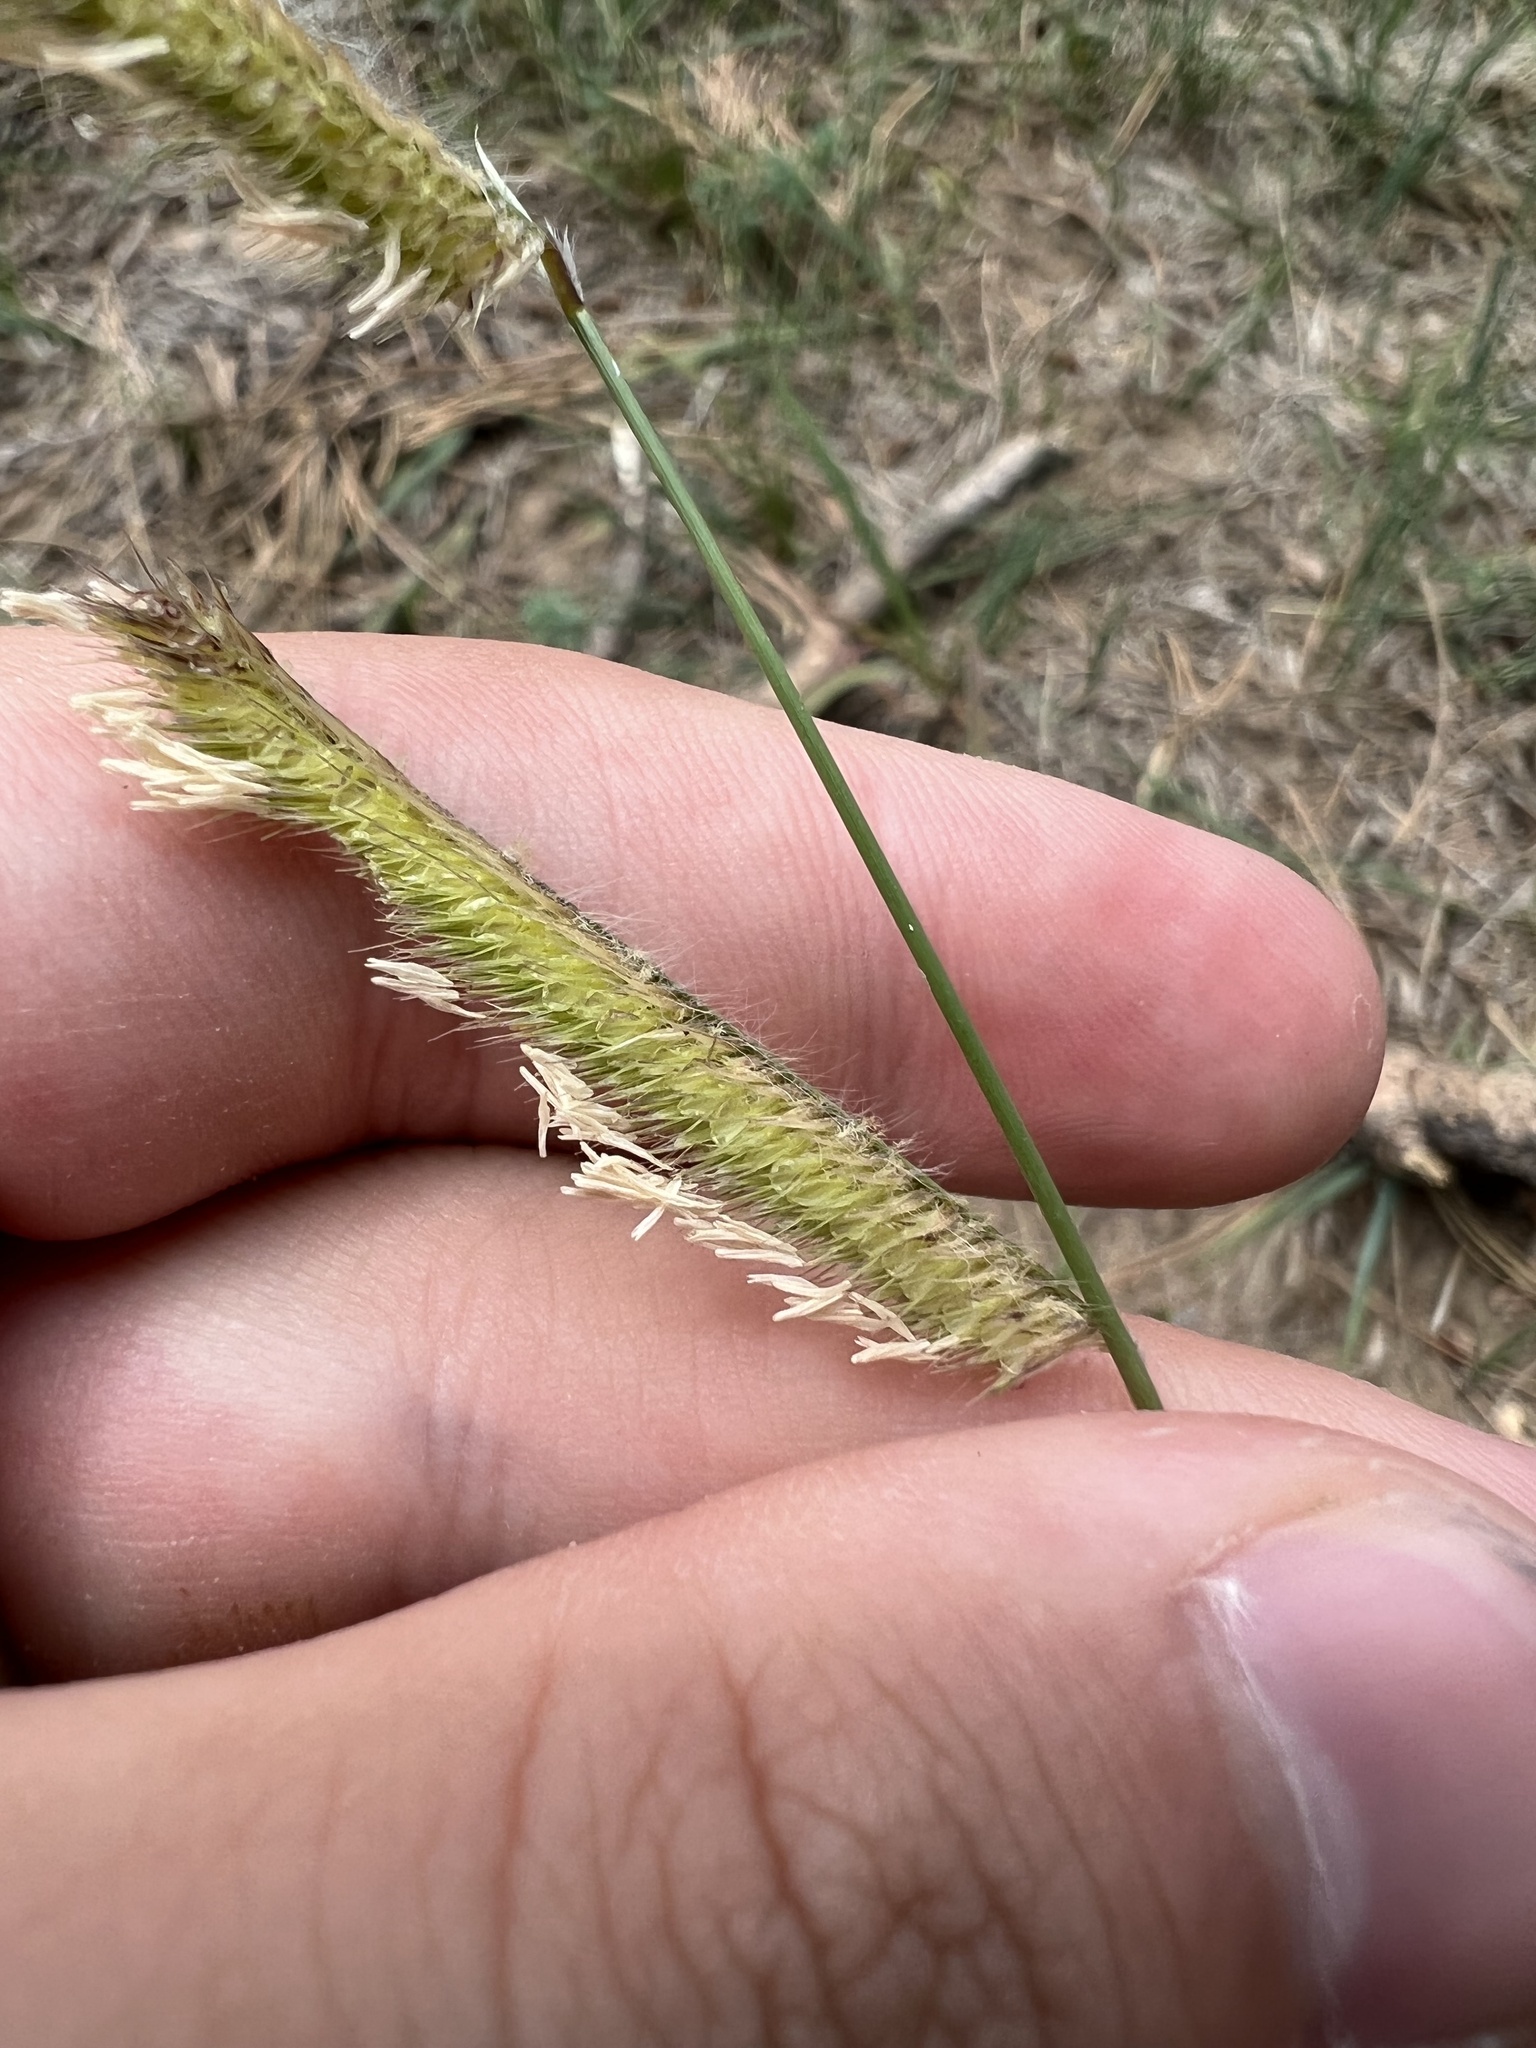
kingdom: Plantae
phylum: Tracheophyta
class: Liliopsida
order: Poales
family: Poaceae
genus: Bouteloua
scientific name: Bouteloua gracilis
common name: Blue grama
